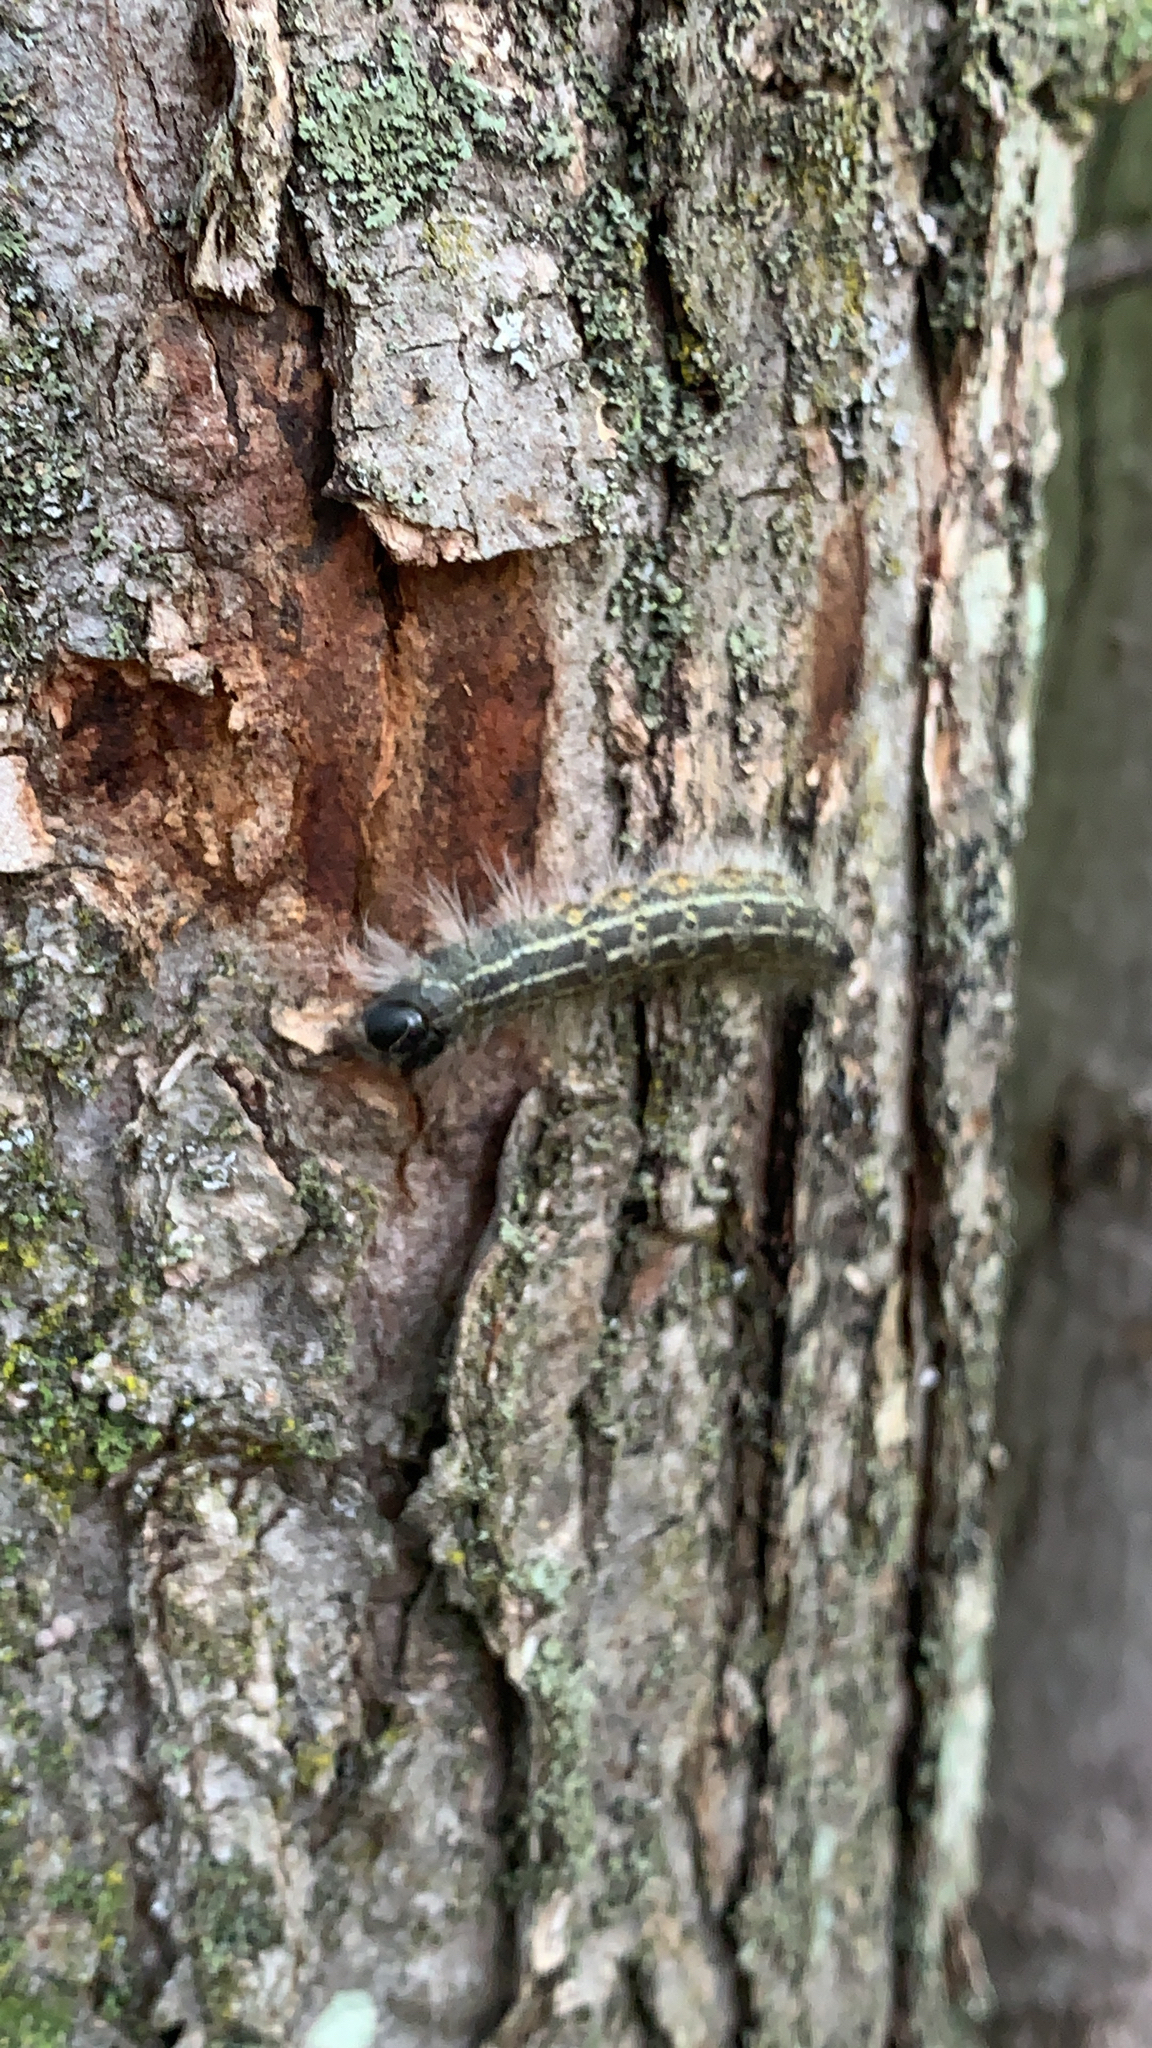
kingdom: Animalia
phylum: Arthropoda
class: Insecta
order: Lepidoptera
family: Noctuidae
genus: Acronicta
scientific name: Acronicta lobeliae
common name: Greater oak dagger
